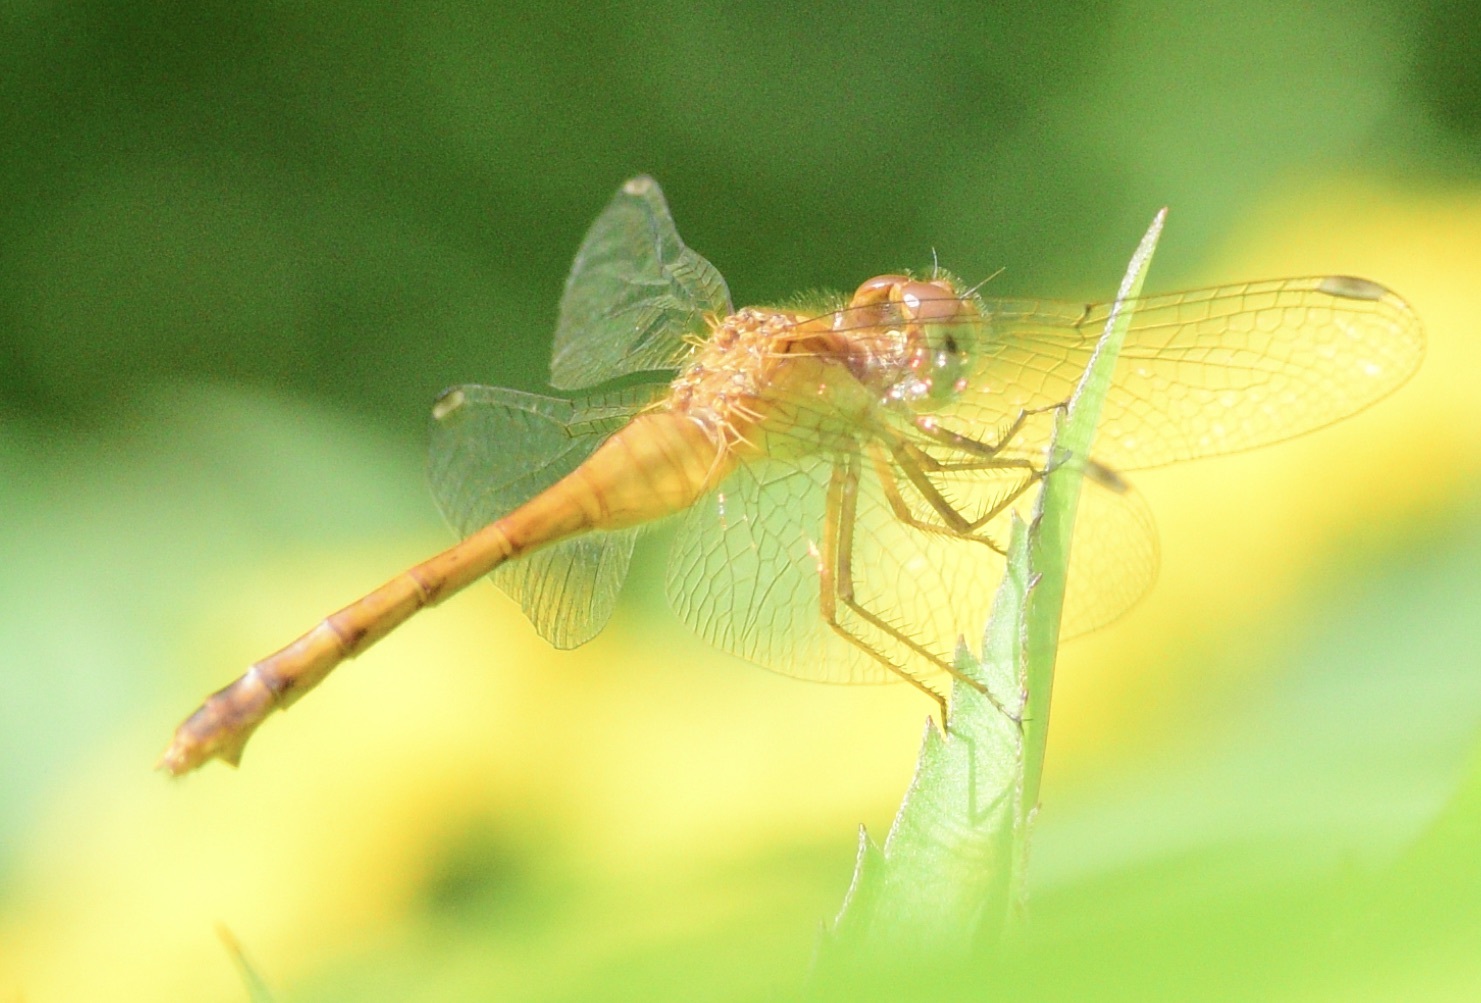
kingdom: Animalia
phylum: Arthropoda
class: Insecta
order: Odonata
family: Libellulidae
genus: Sympetrum
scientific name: Sympetrum vicinum
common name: Autumn meadowhawk
